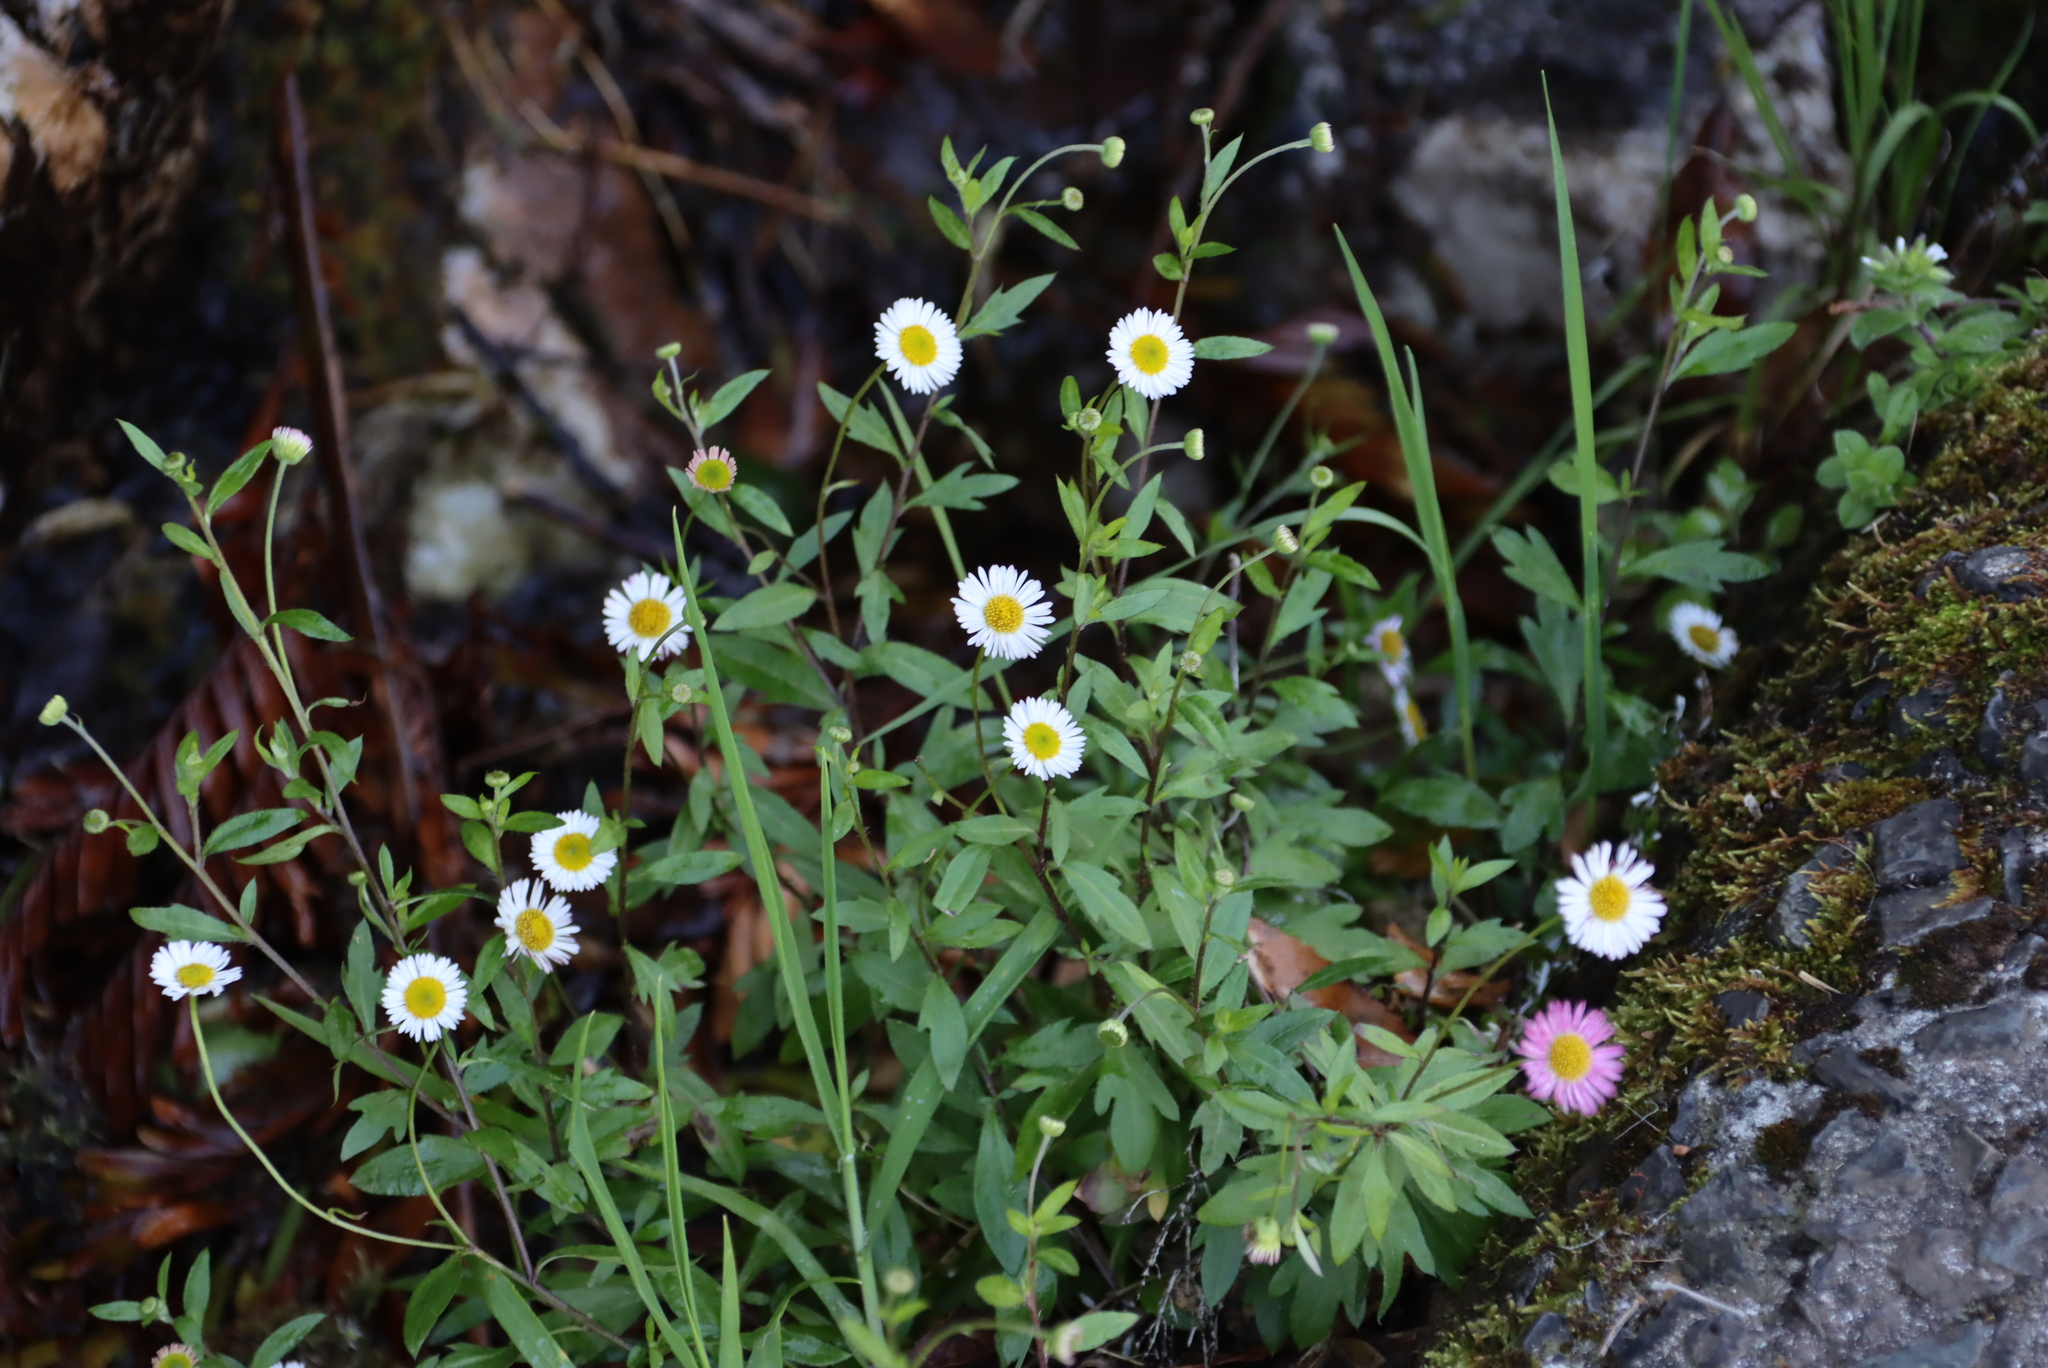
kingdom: Plantae
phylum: Tracheophyta
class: Magnoliopsida
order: Asterales
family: Asteraceae
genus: Erigeron
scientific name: Erigeron karvinskianus
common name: Mexican fleabane
